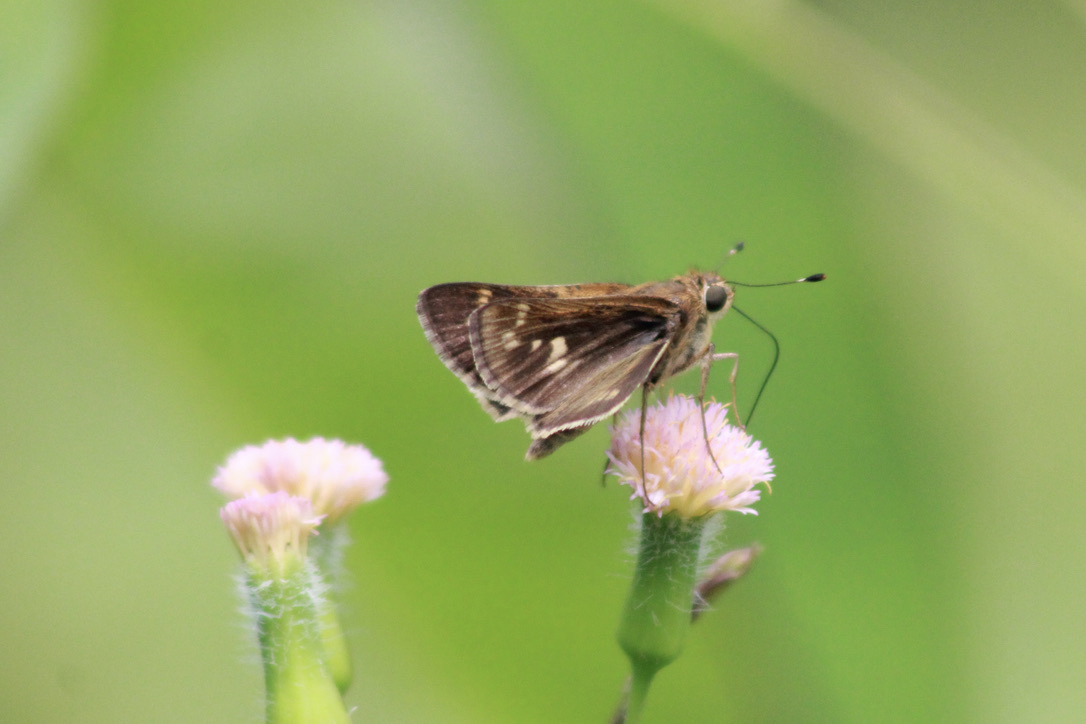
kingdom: Animalia
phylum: Arthropoda
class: Insecta
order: Lepidoptera
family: Hesperiidae
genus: Pompeius
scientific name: Pompeius pompeius
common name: Pompeius skipper
